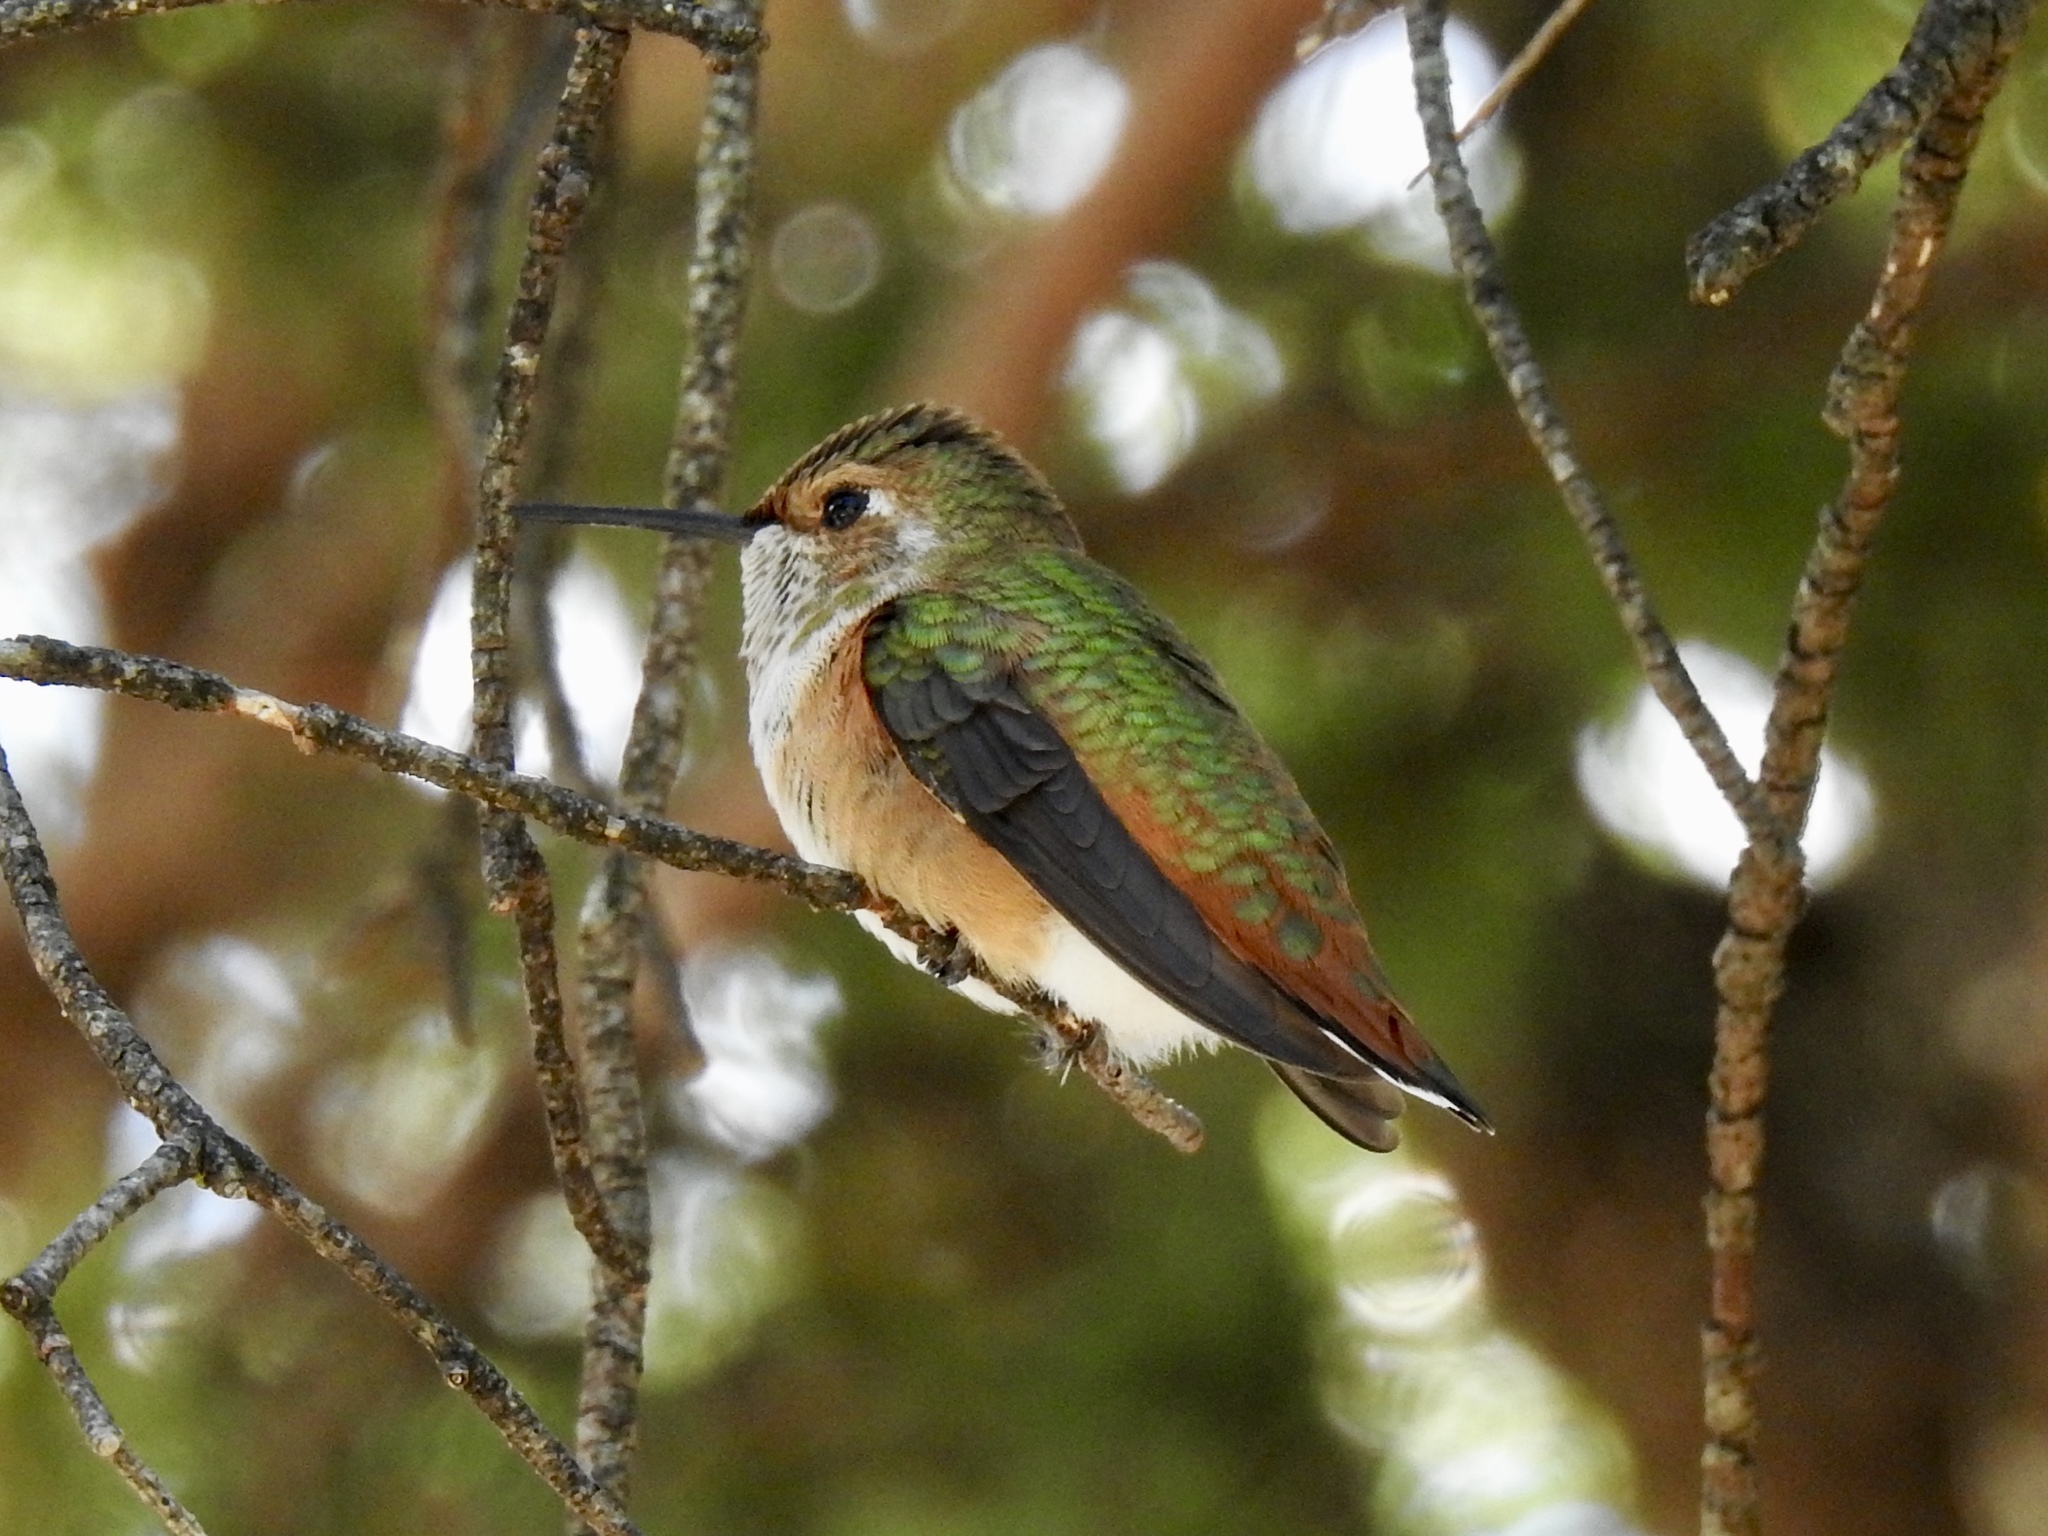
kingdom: Animalia
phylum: Chordata
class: Aves
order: Apodiformes
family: Trochilidae
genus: Selasphorus
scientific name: Selasphorus rufus
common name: Rufous hummingbird
